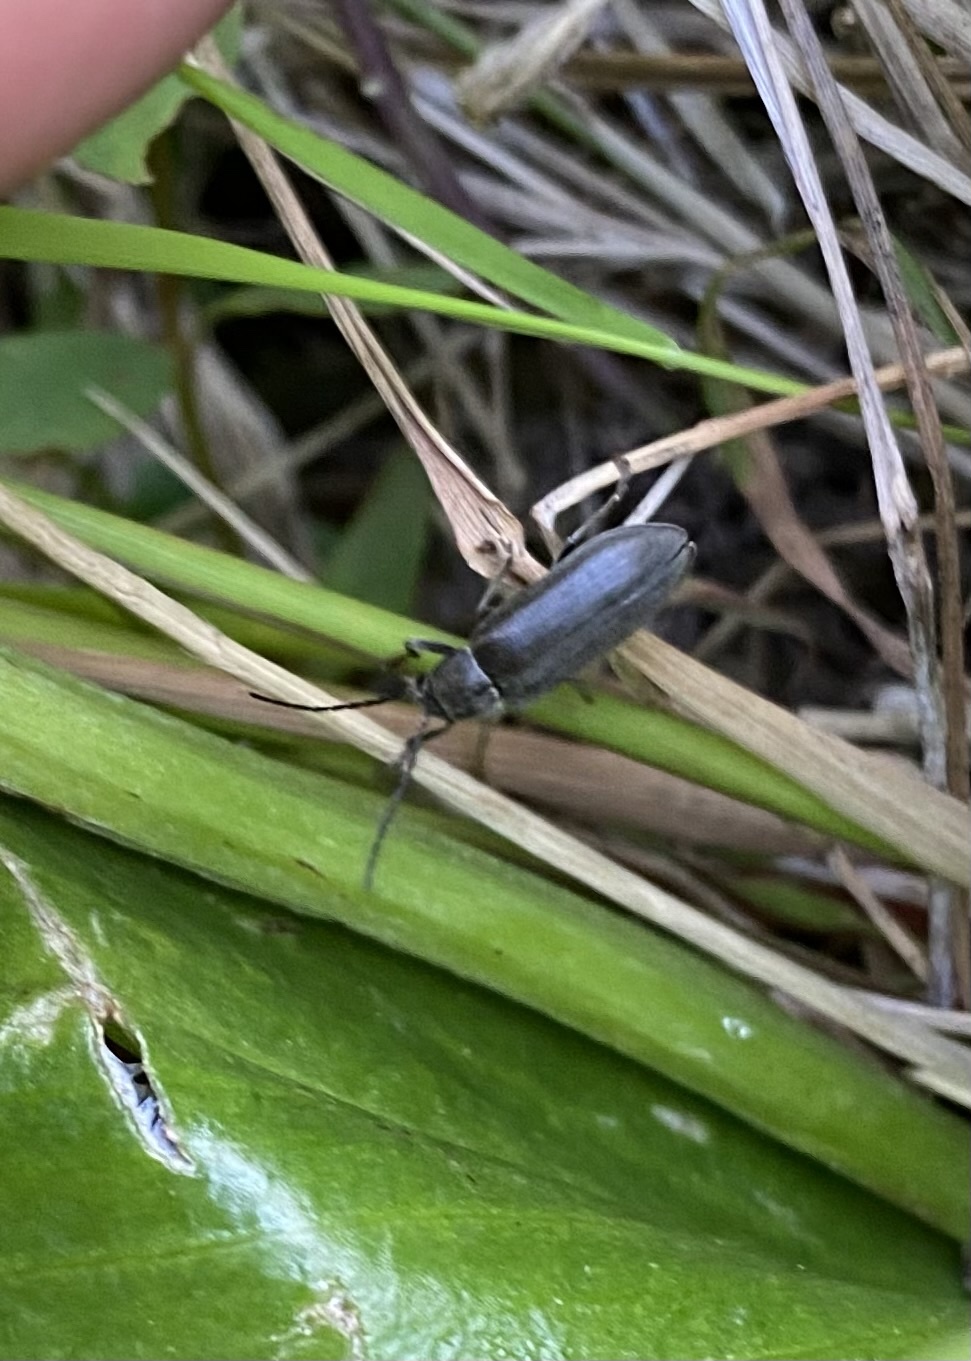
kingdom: Animalia
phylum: Arthropoda
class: Insecta
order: Coleoptera
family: Dascillidae
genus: Dascillus
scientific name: Dascillus
